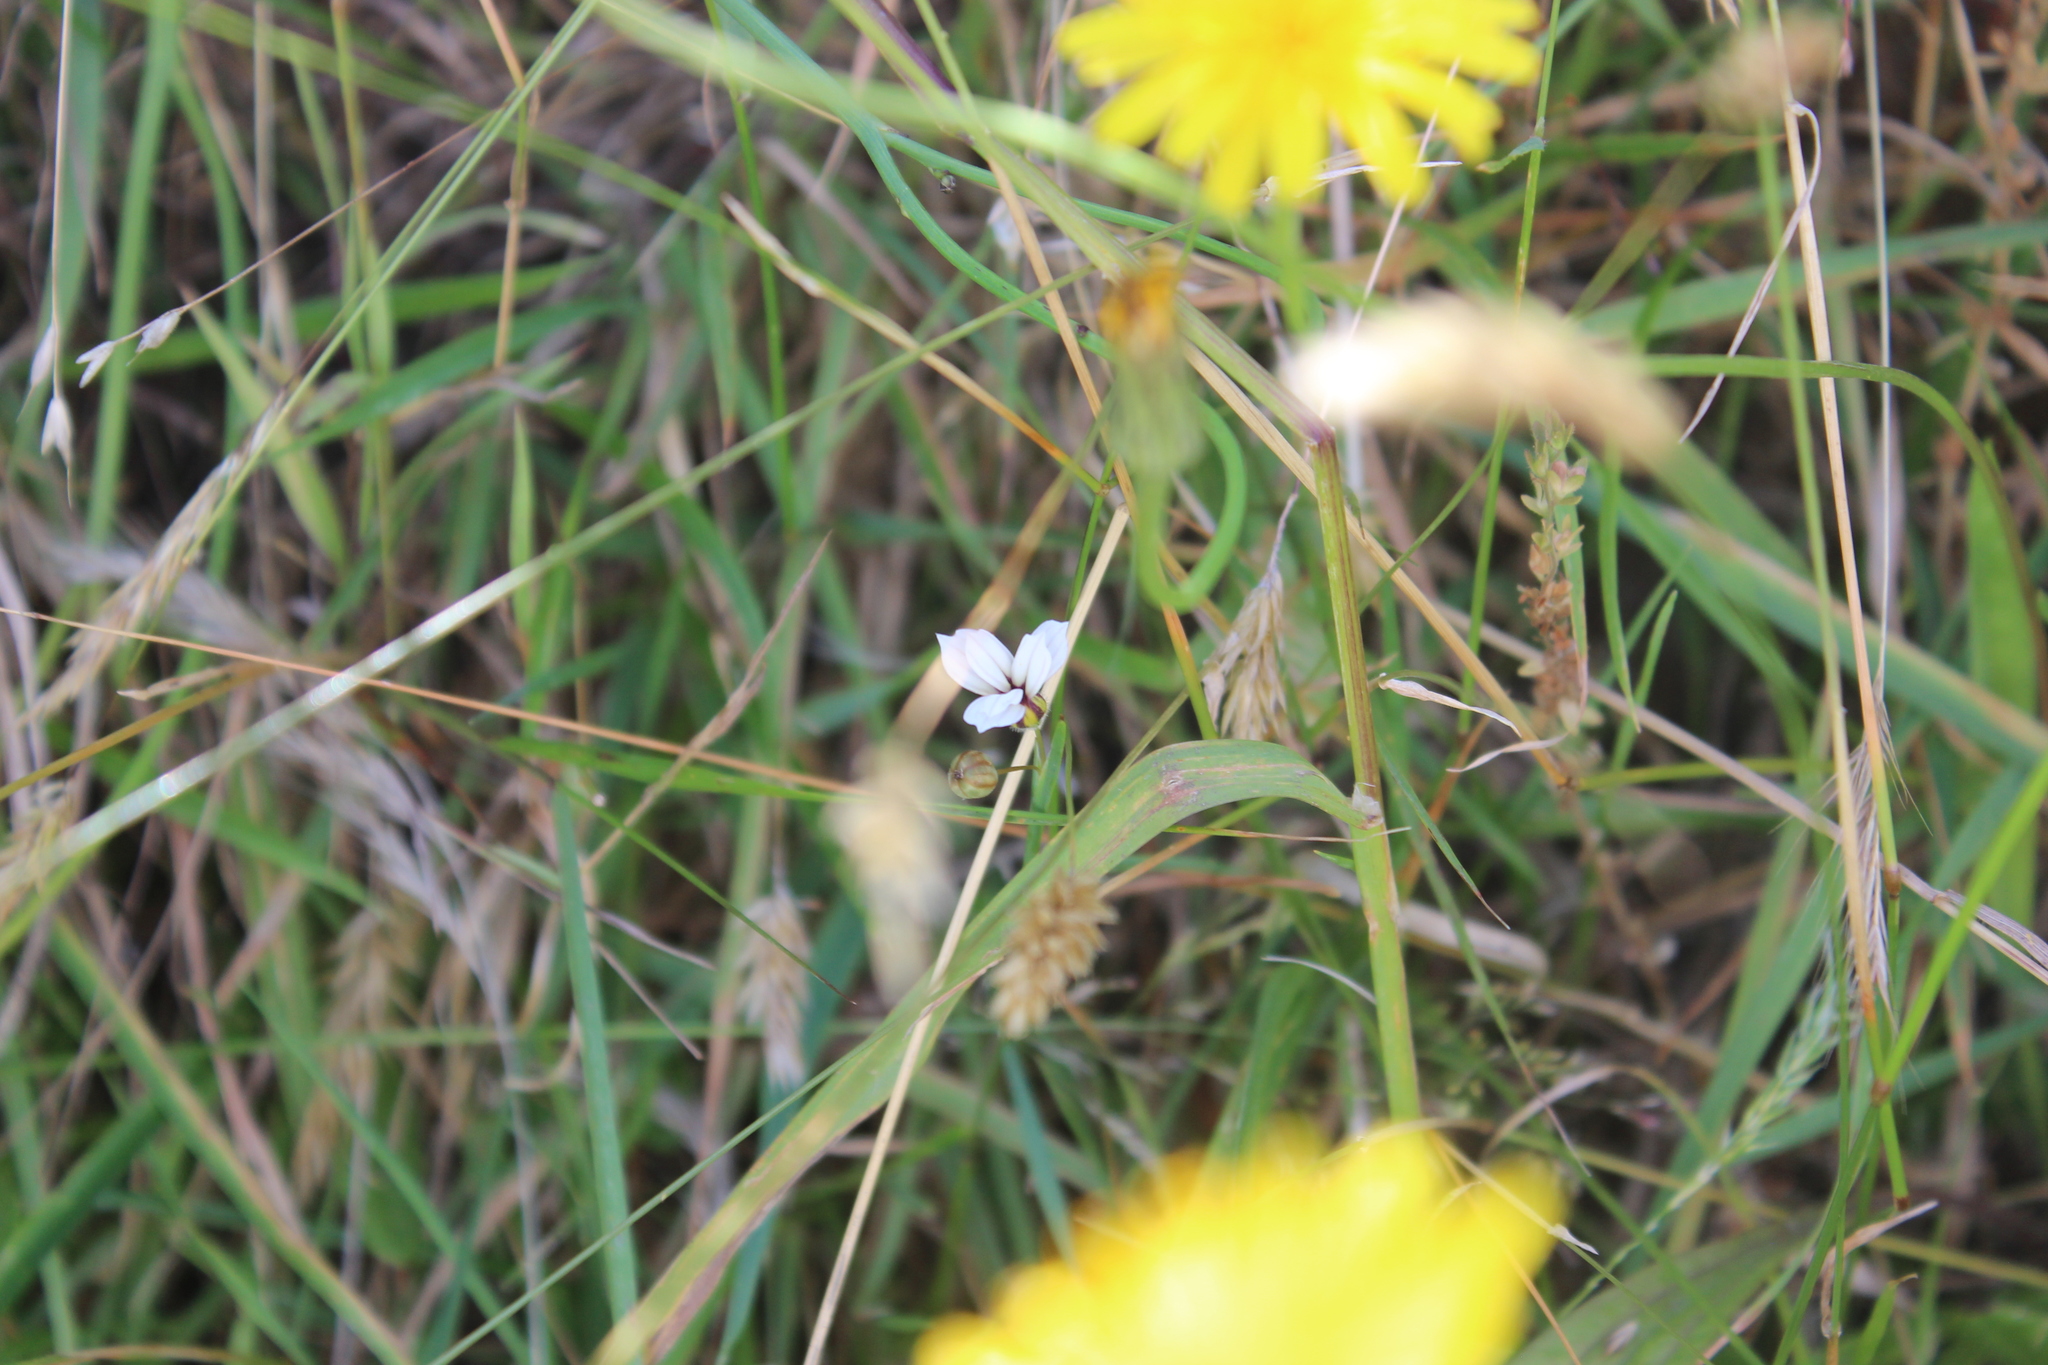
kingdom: Plantae
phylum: Tracheophyta
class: Liliopsida
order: Asparagales
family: Iridaceae
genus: Sisyrinchium
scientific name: Sisyrinchium micranthum
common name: Bermuda pigroot
